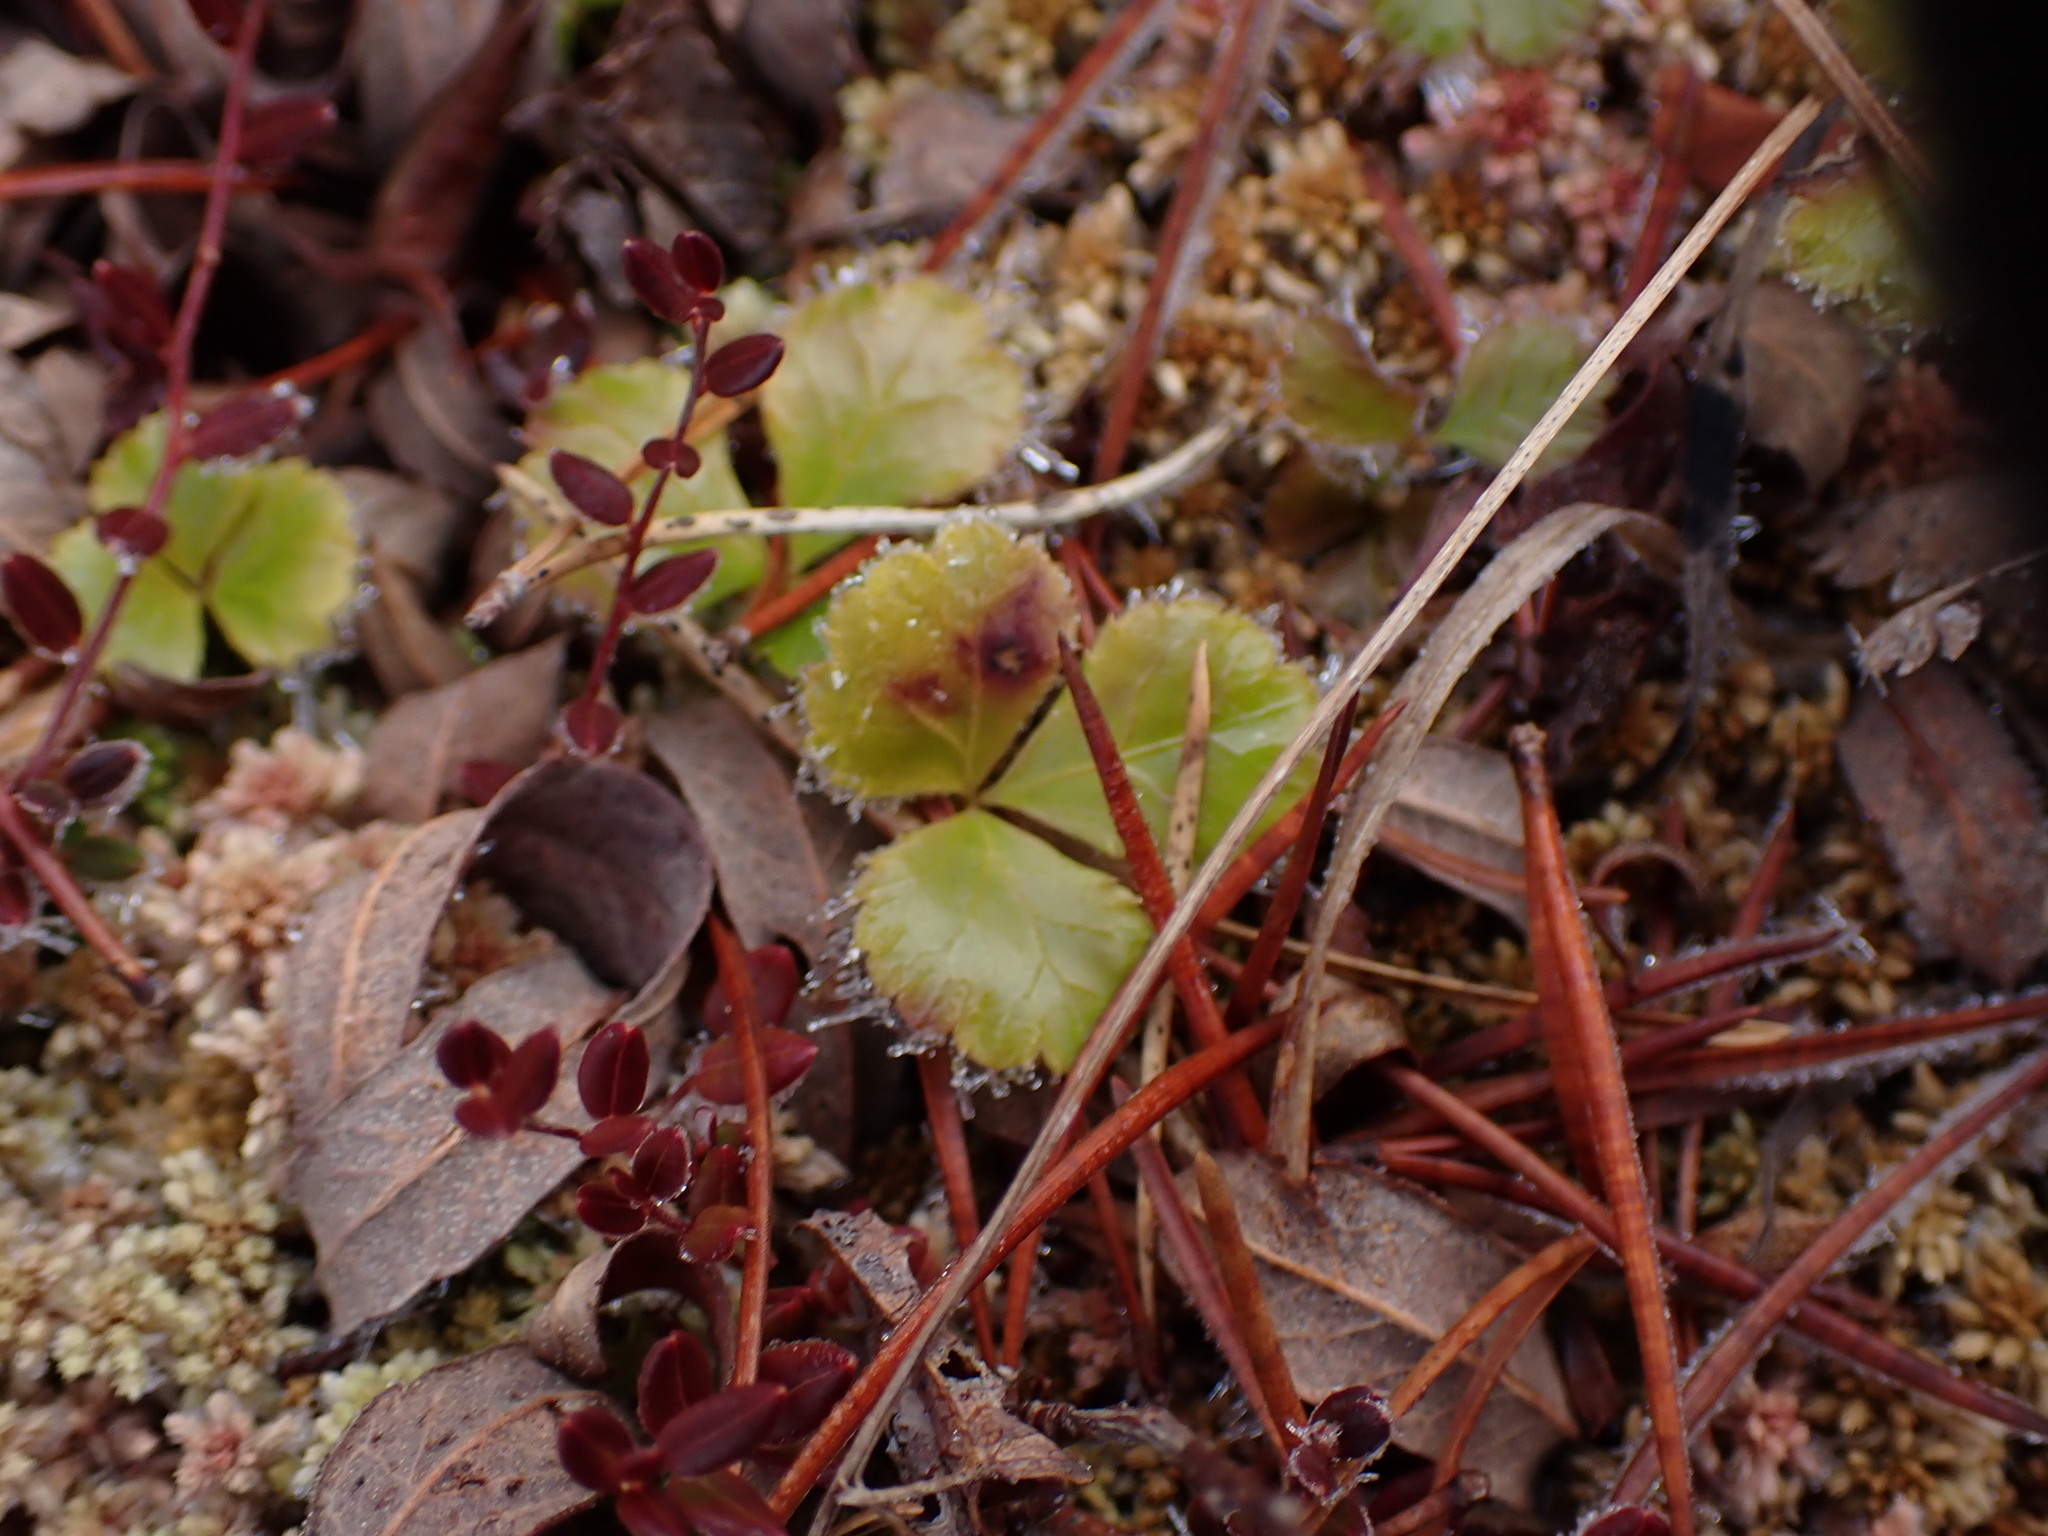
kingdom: Plantae
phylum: Tracheophyta
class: Magnoliopsida
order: Ranunculales
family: Ranunculaceae
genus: Coptis
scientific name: Coptis trifolia
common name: Canker-root
